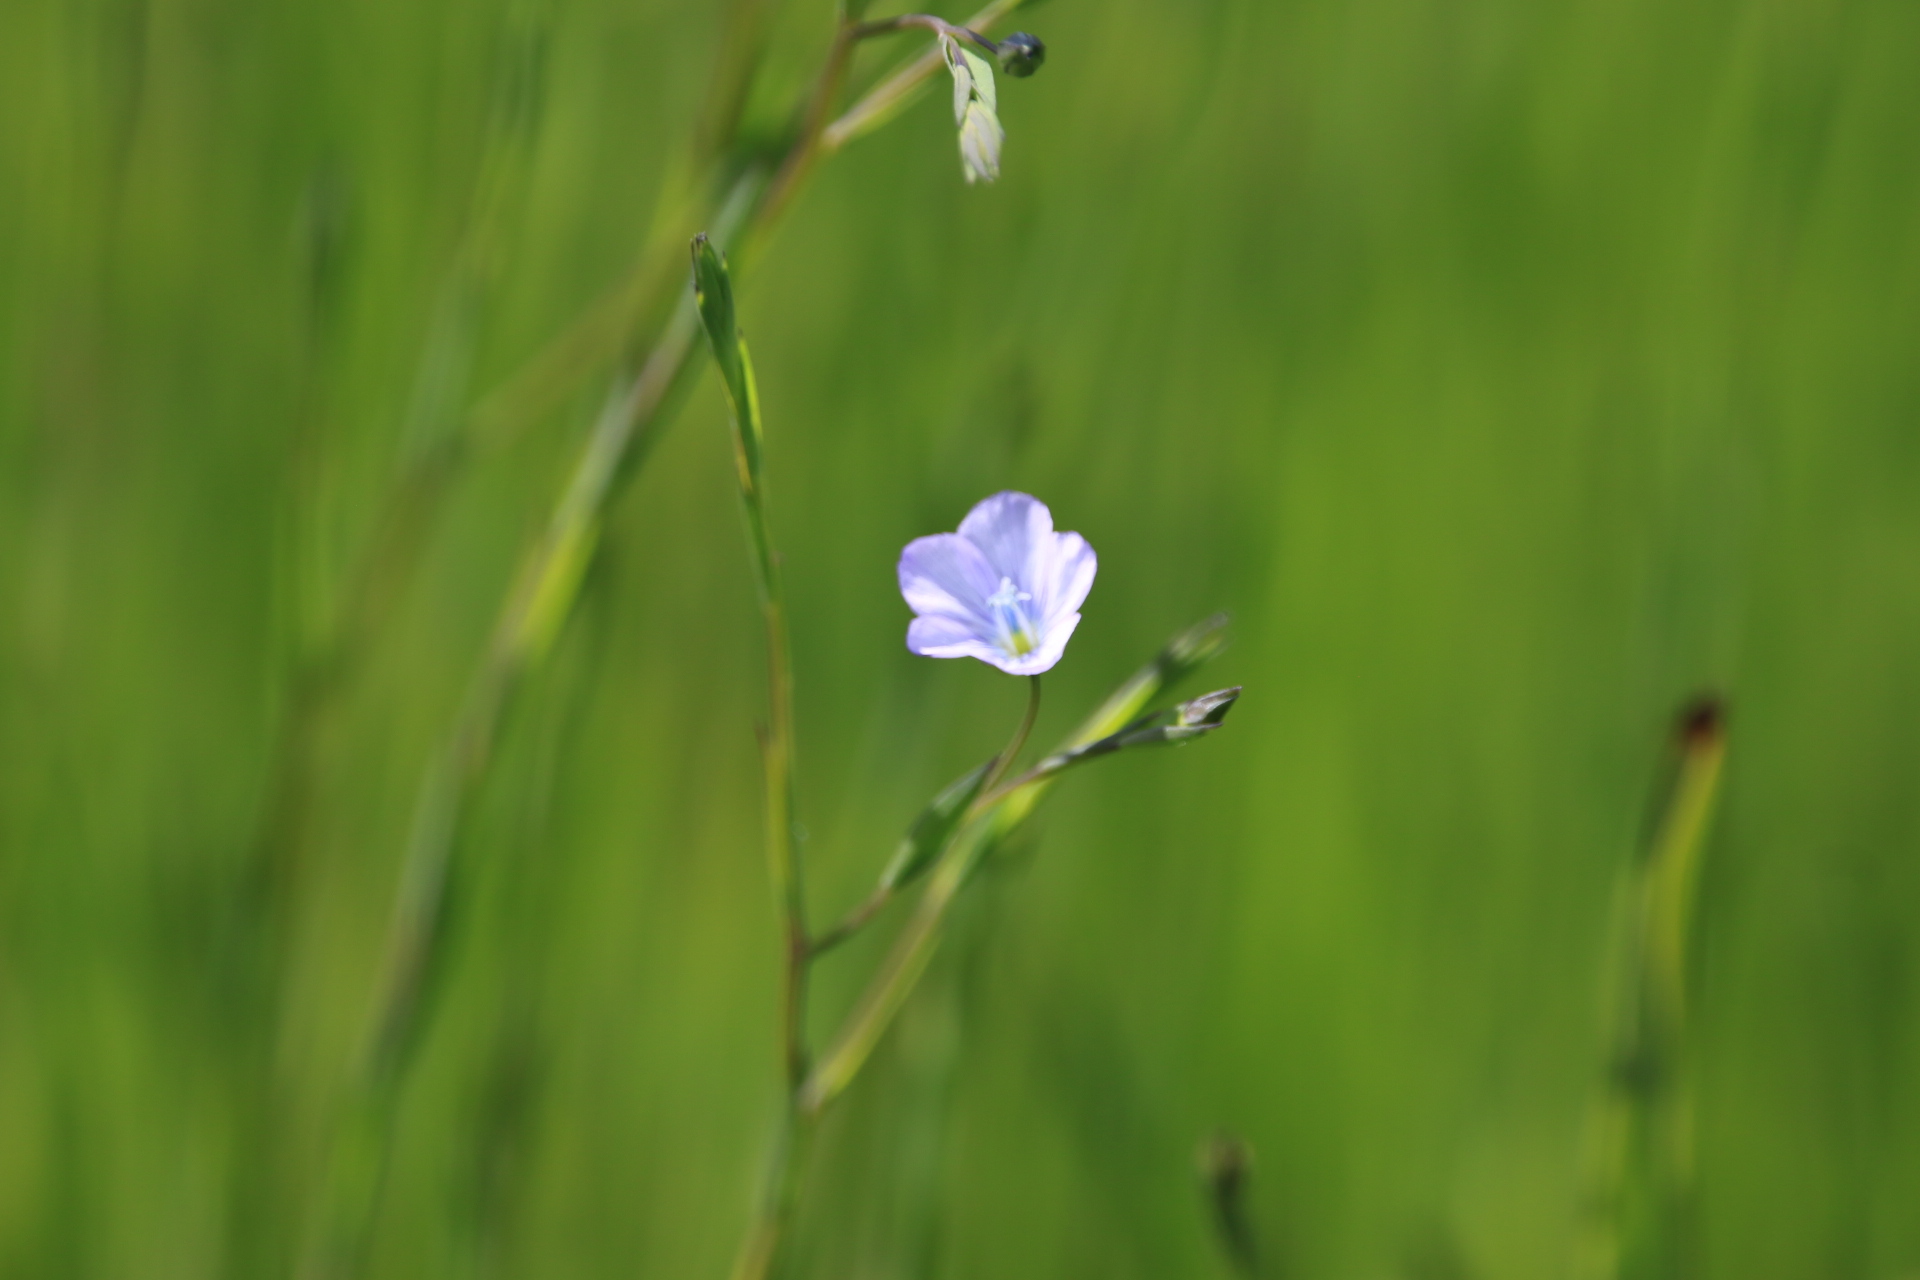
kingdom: Plantae
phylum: Tracheophyta
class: Magnoliopsida
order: Malpighiales
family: Linaceae
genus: Linum
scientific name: Linum bienne
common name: Pale flax
